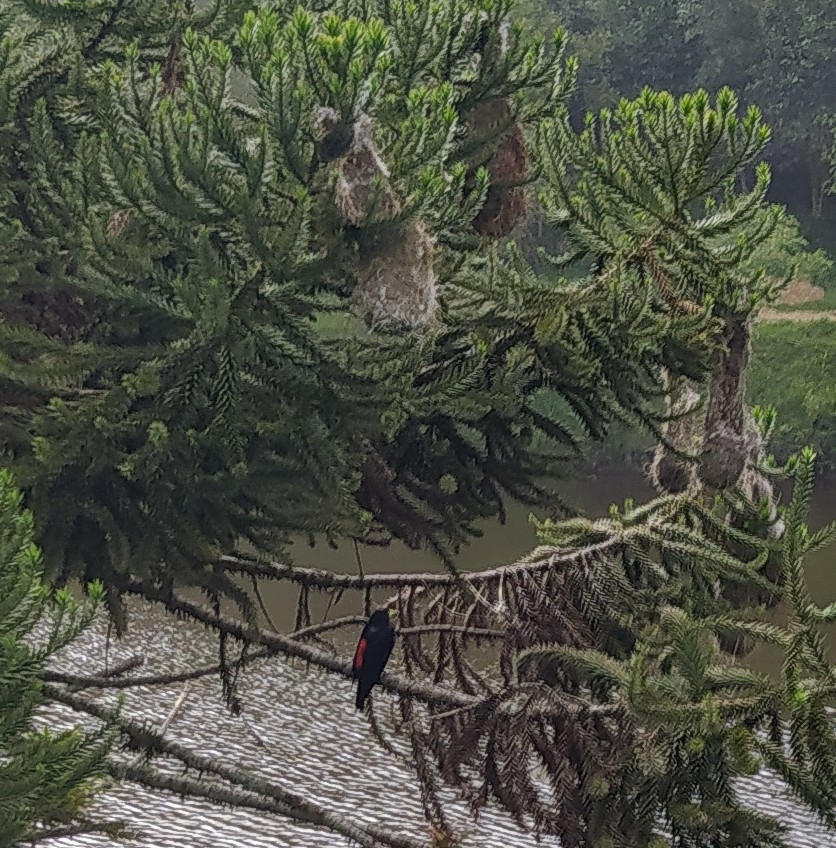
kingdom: Animalia
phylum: Chordata
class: Aves
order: Passeriformes
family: Icteridae
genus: Cacicus
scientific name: Cacicus haemorrhous
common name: Red-rumped cacique
